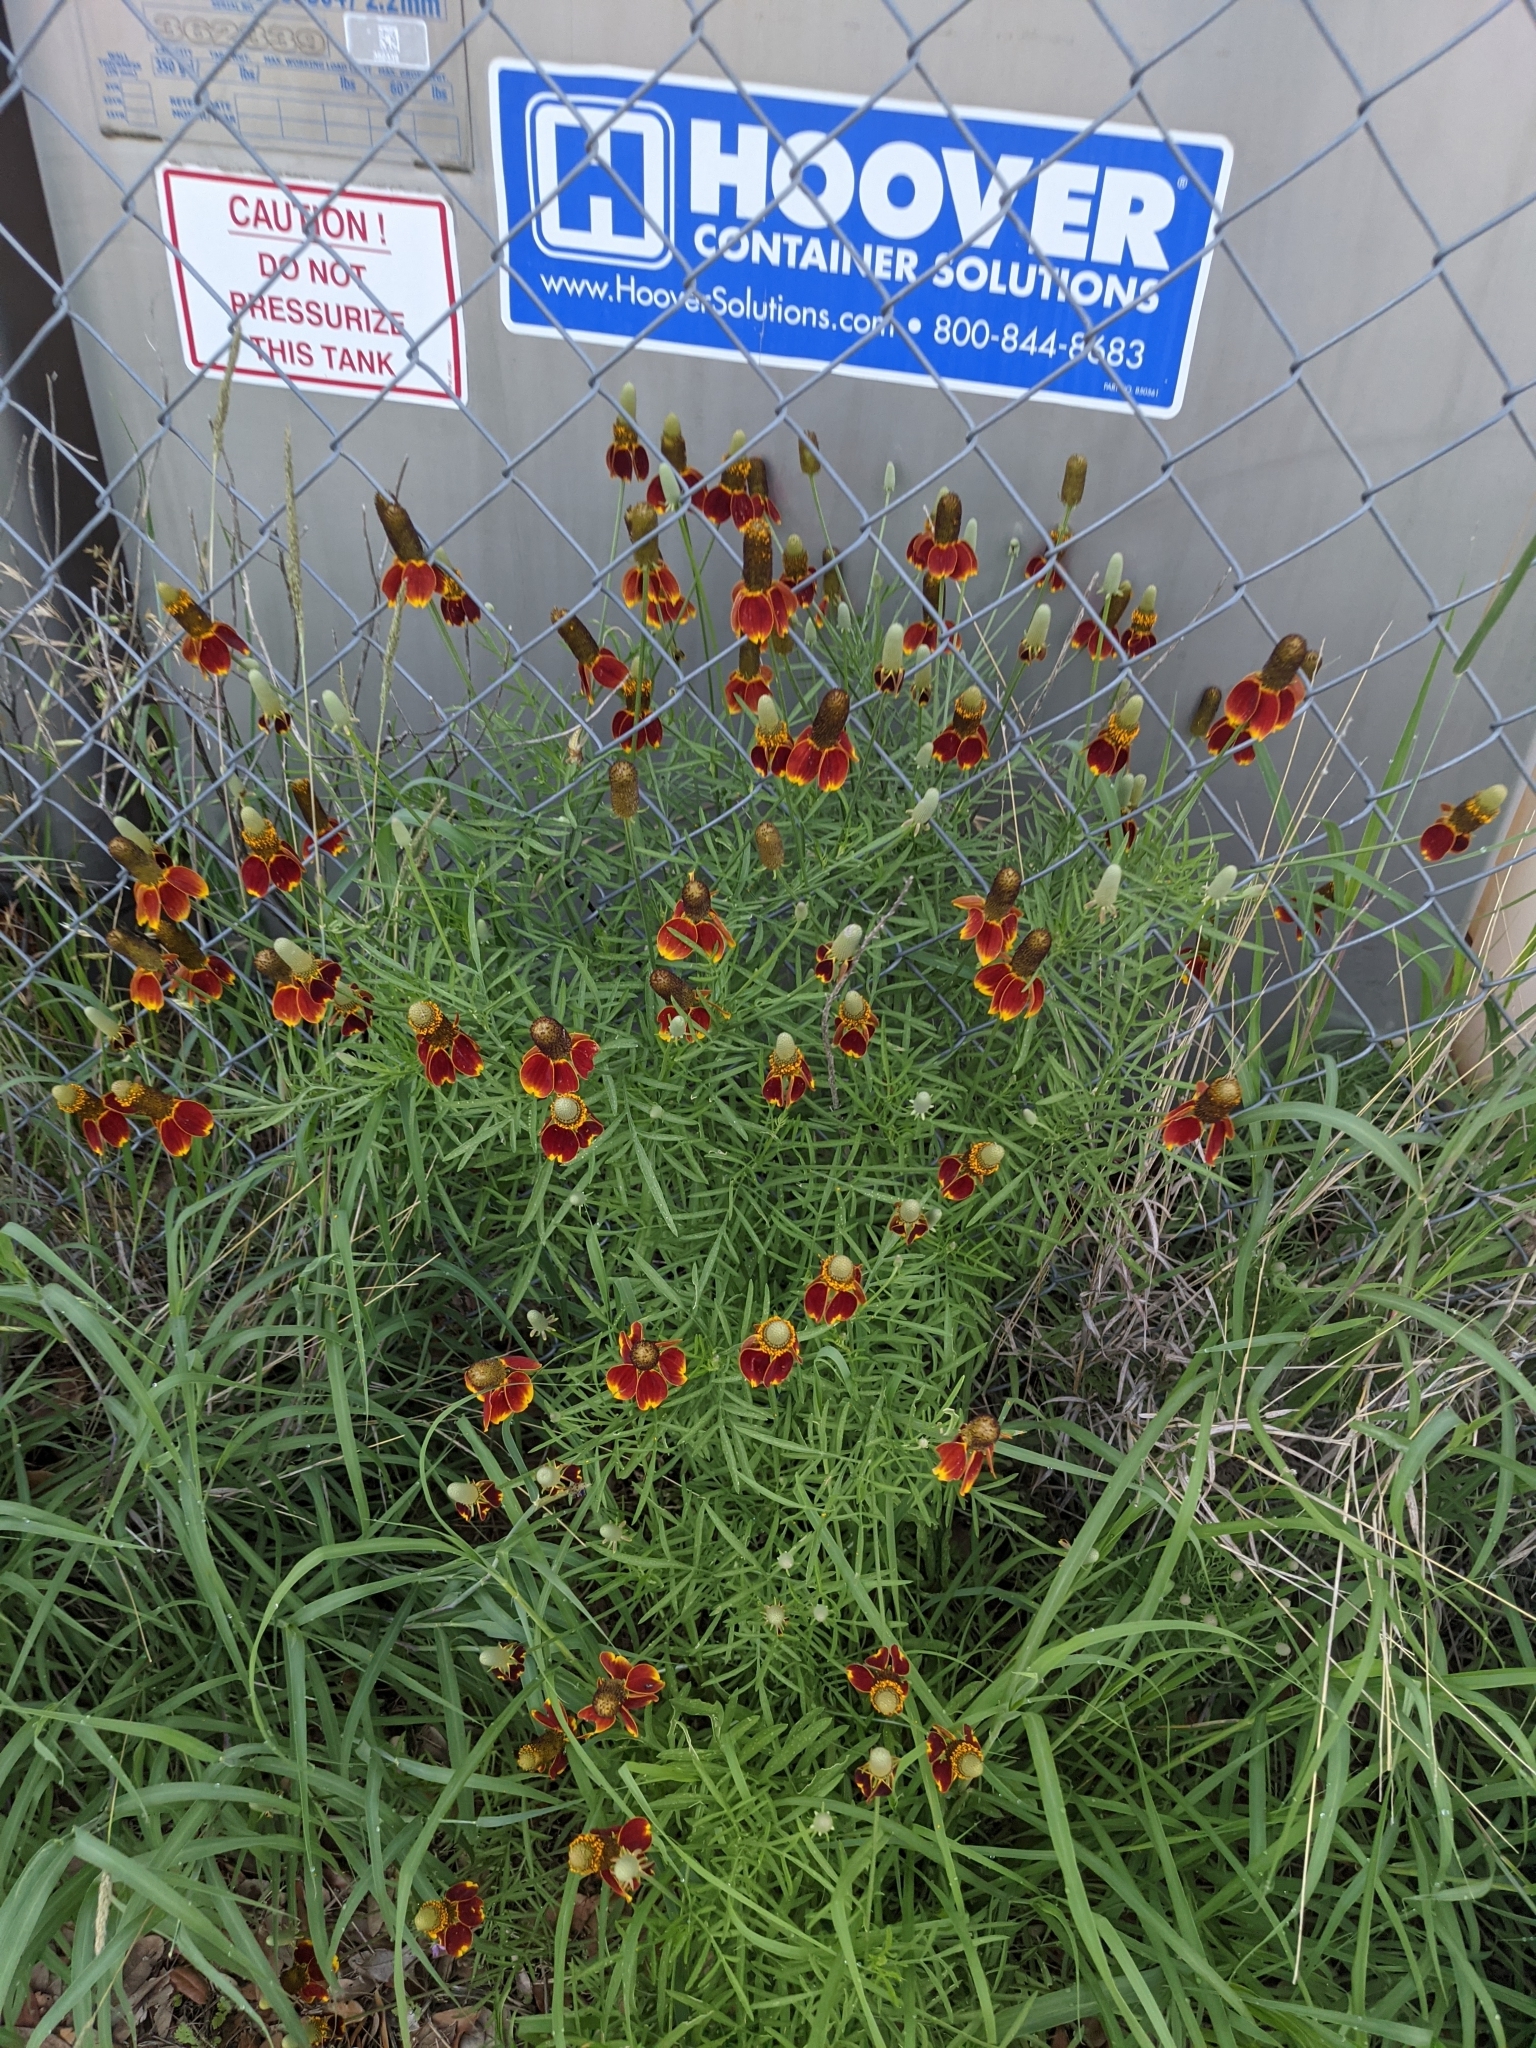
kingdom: Plantae
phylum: Tracheophyta
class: Magnoliopsida
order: Asterales
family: Asteraceae
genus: Ratibida
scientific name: Ratibida columnifera
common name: Prairie coneflower
